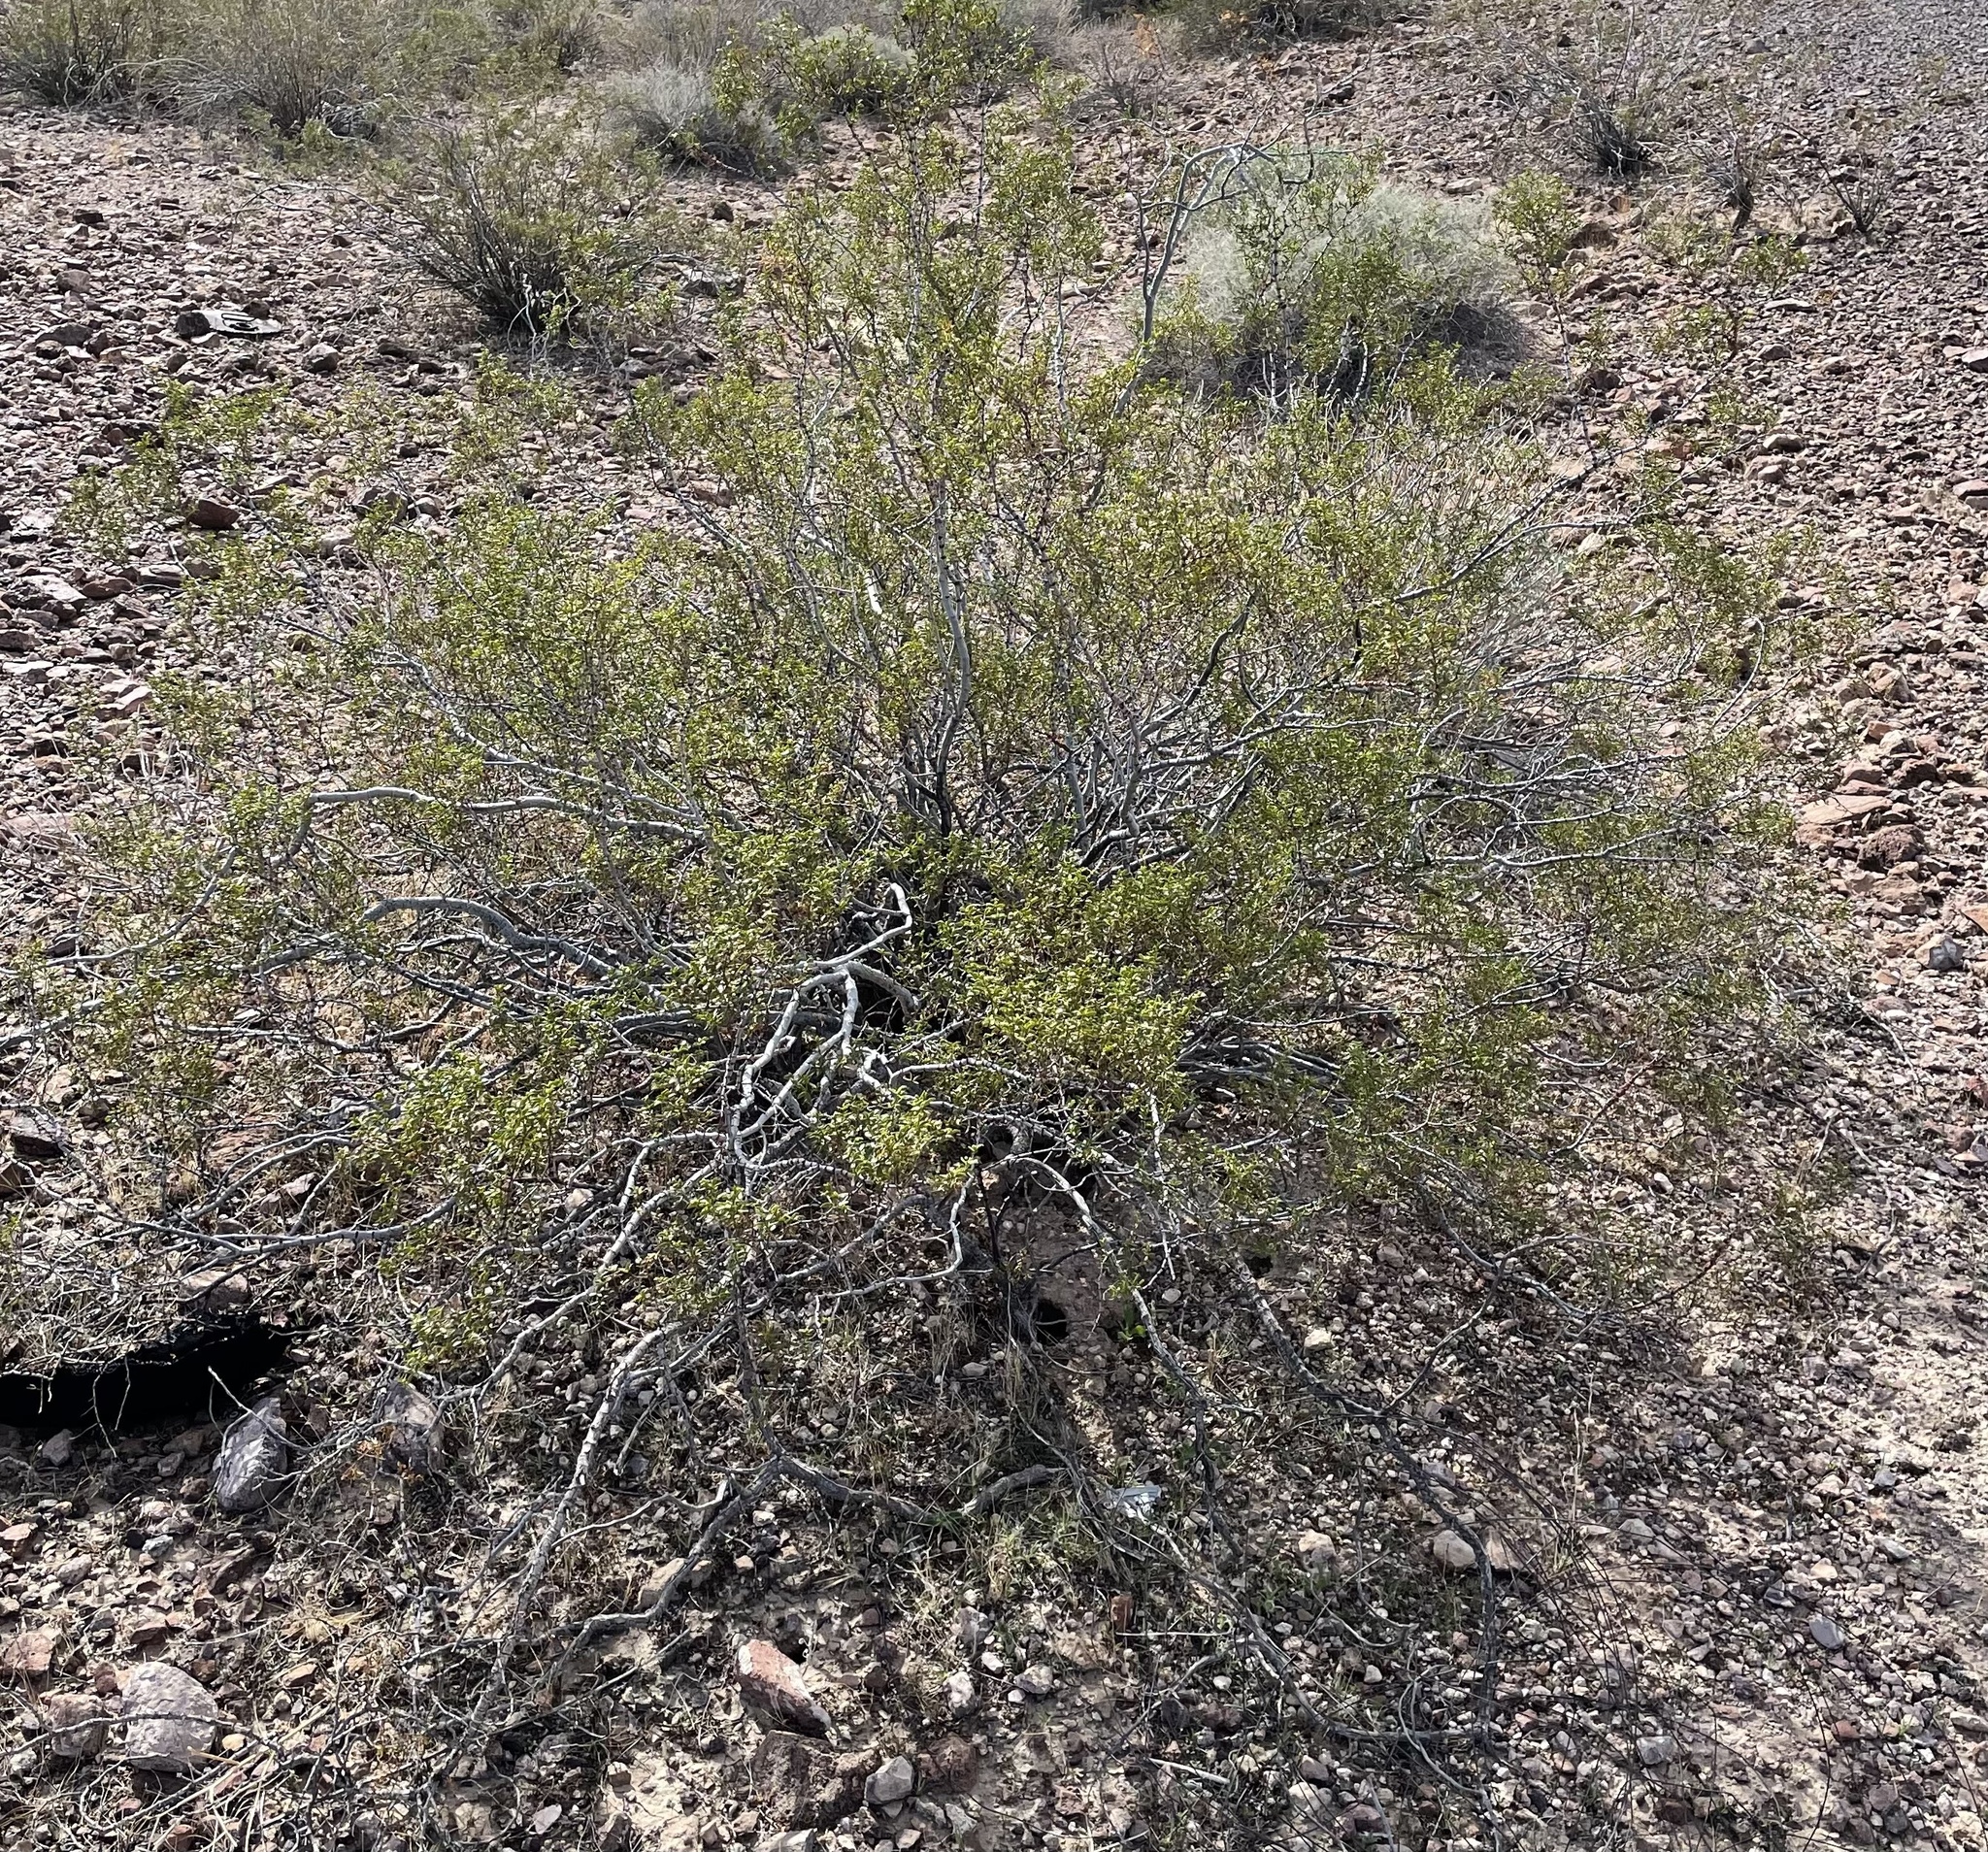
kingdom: Animalia
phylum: Arthropoda
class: Insecta
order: Hemiptera
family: Kerriidae
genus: Tachardiella
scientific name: Tachardiella larreae
